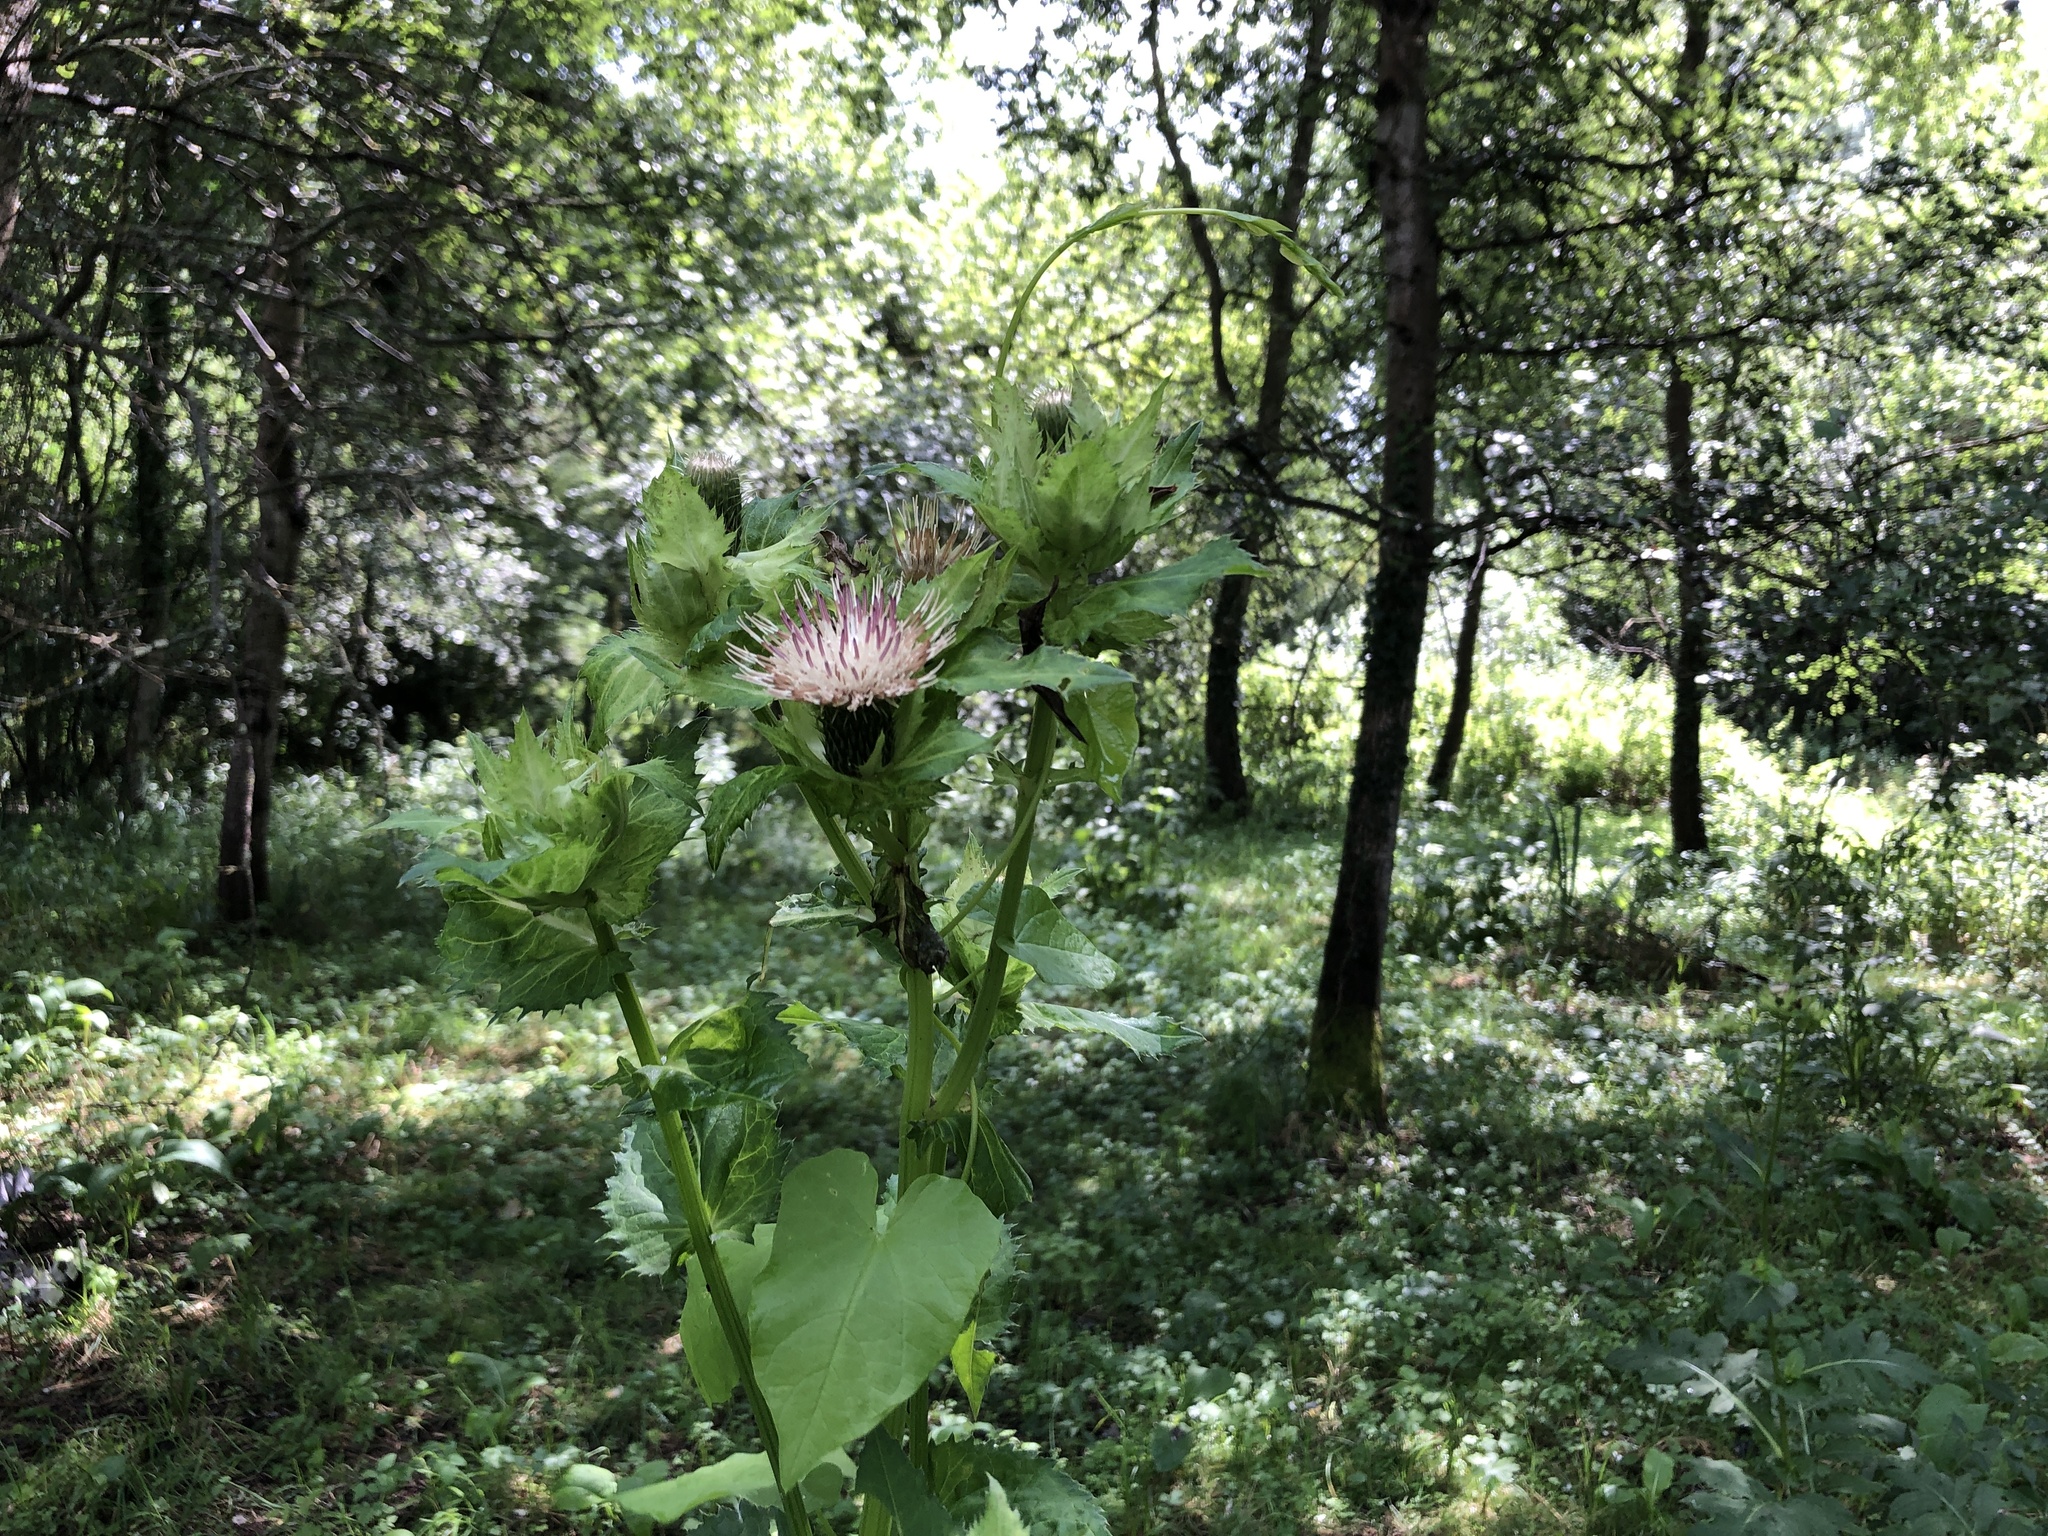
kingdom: Plantae
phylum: Tracheophyta
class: Magnoliopsida
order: Asterales
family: Asteraceae
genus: Cirsium
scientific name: Cirsium oleraceum
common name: Cabbage thistle
